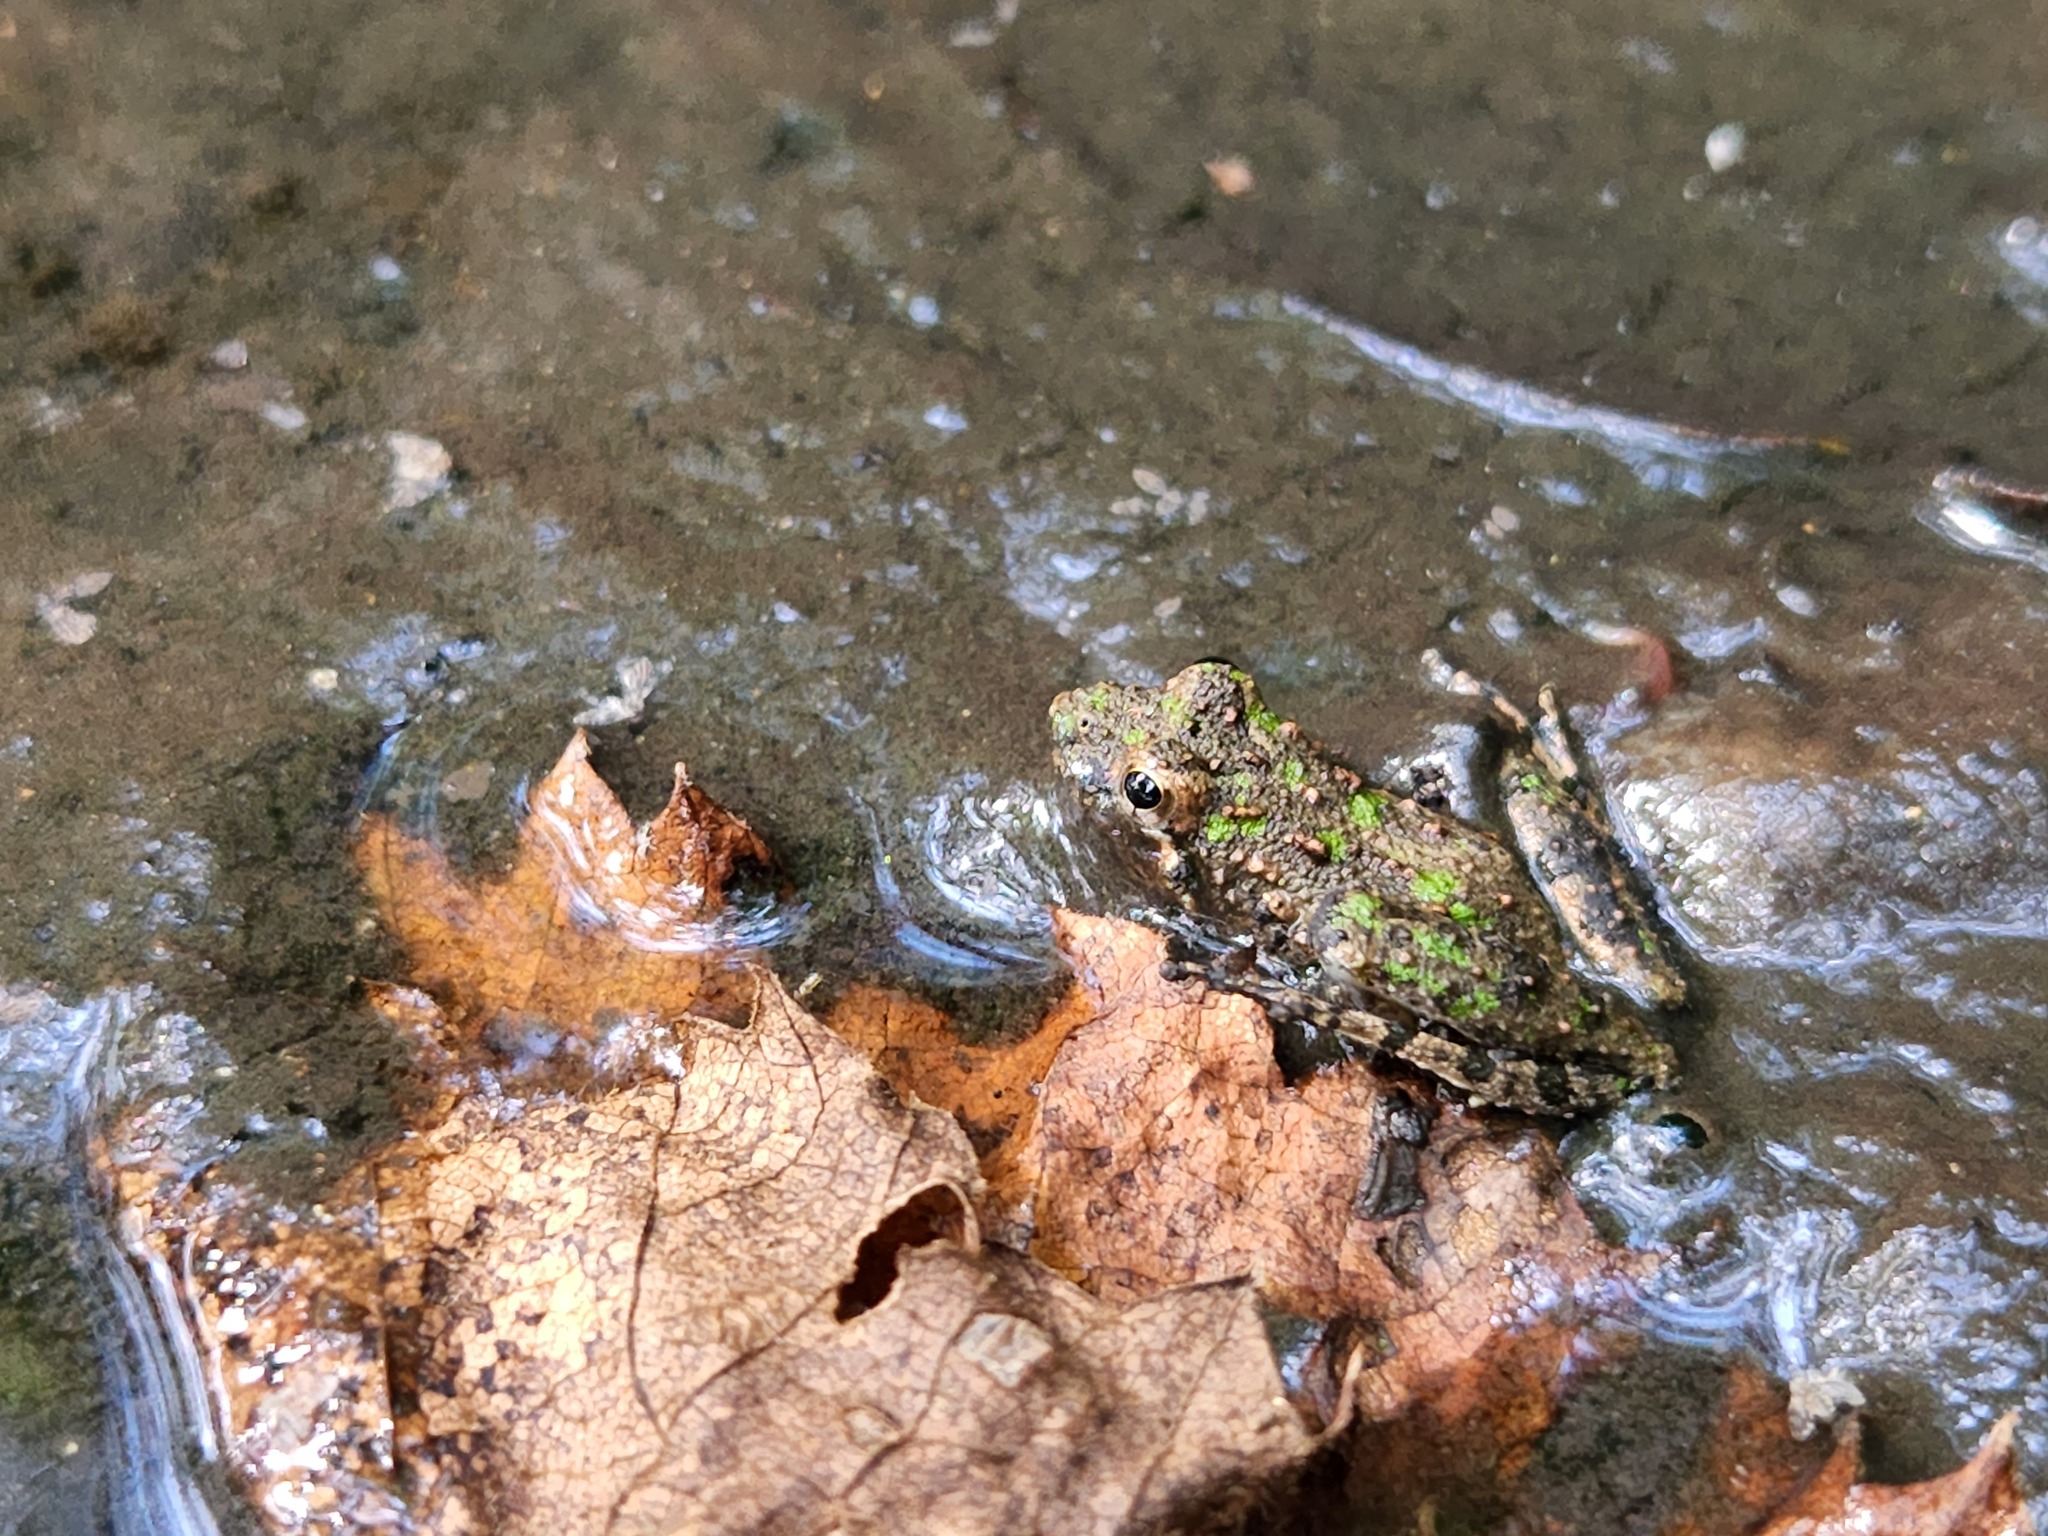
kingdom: Animalia
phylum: Chordata
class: Amphibia
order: Anura
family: Hylidae
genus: Acris
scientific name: Acris crepitans
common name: Northern cricket frog
